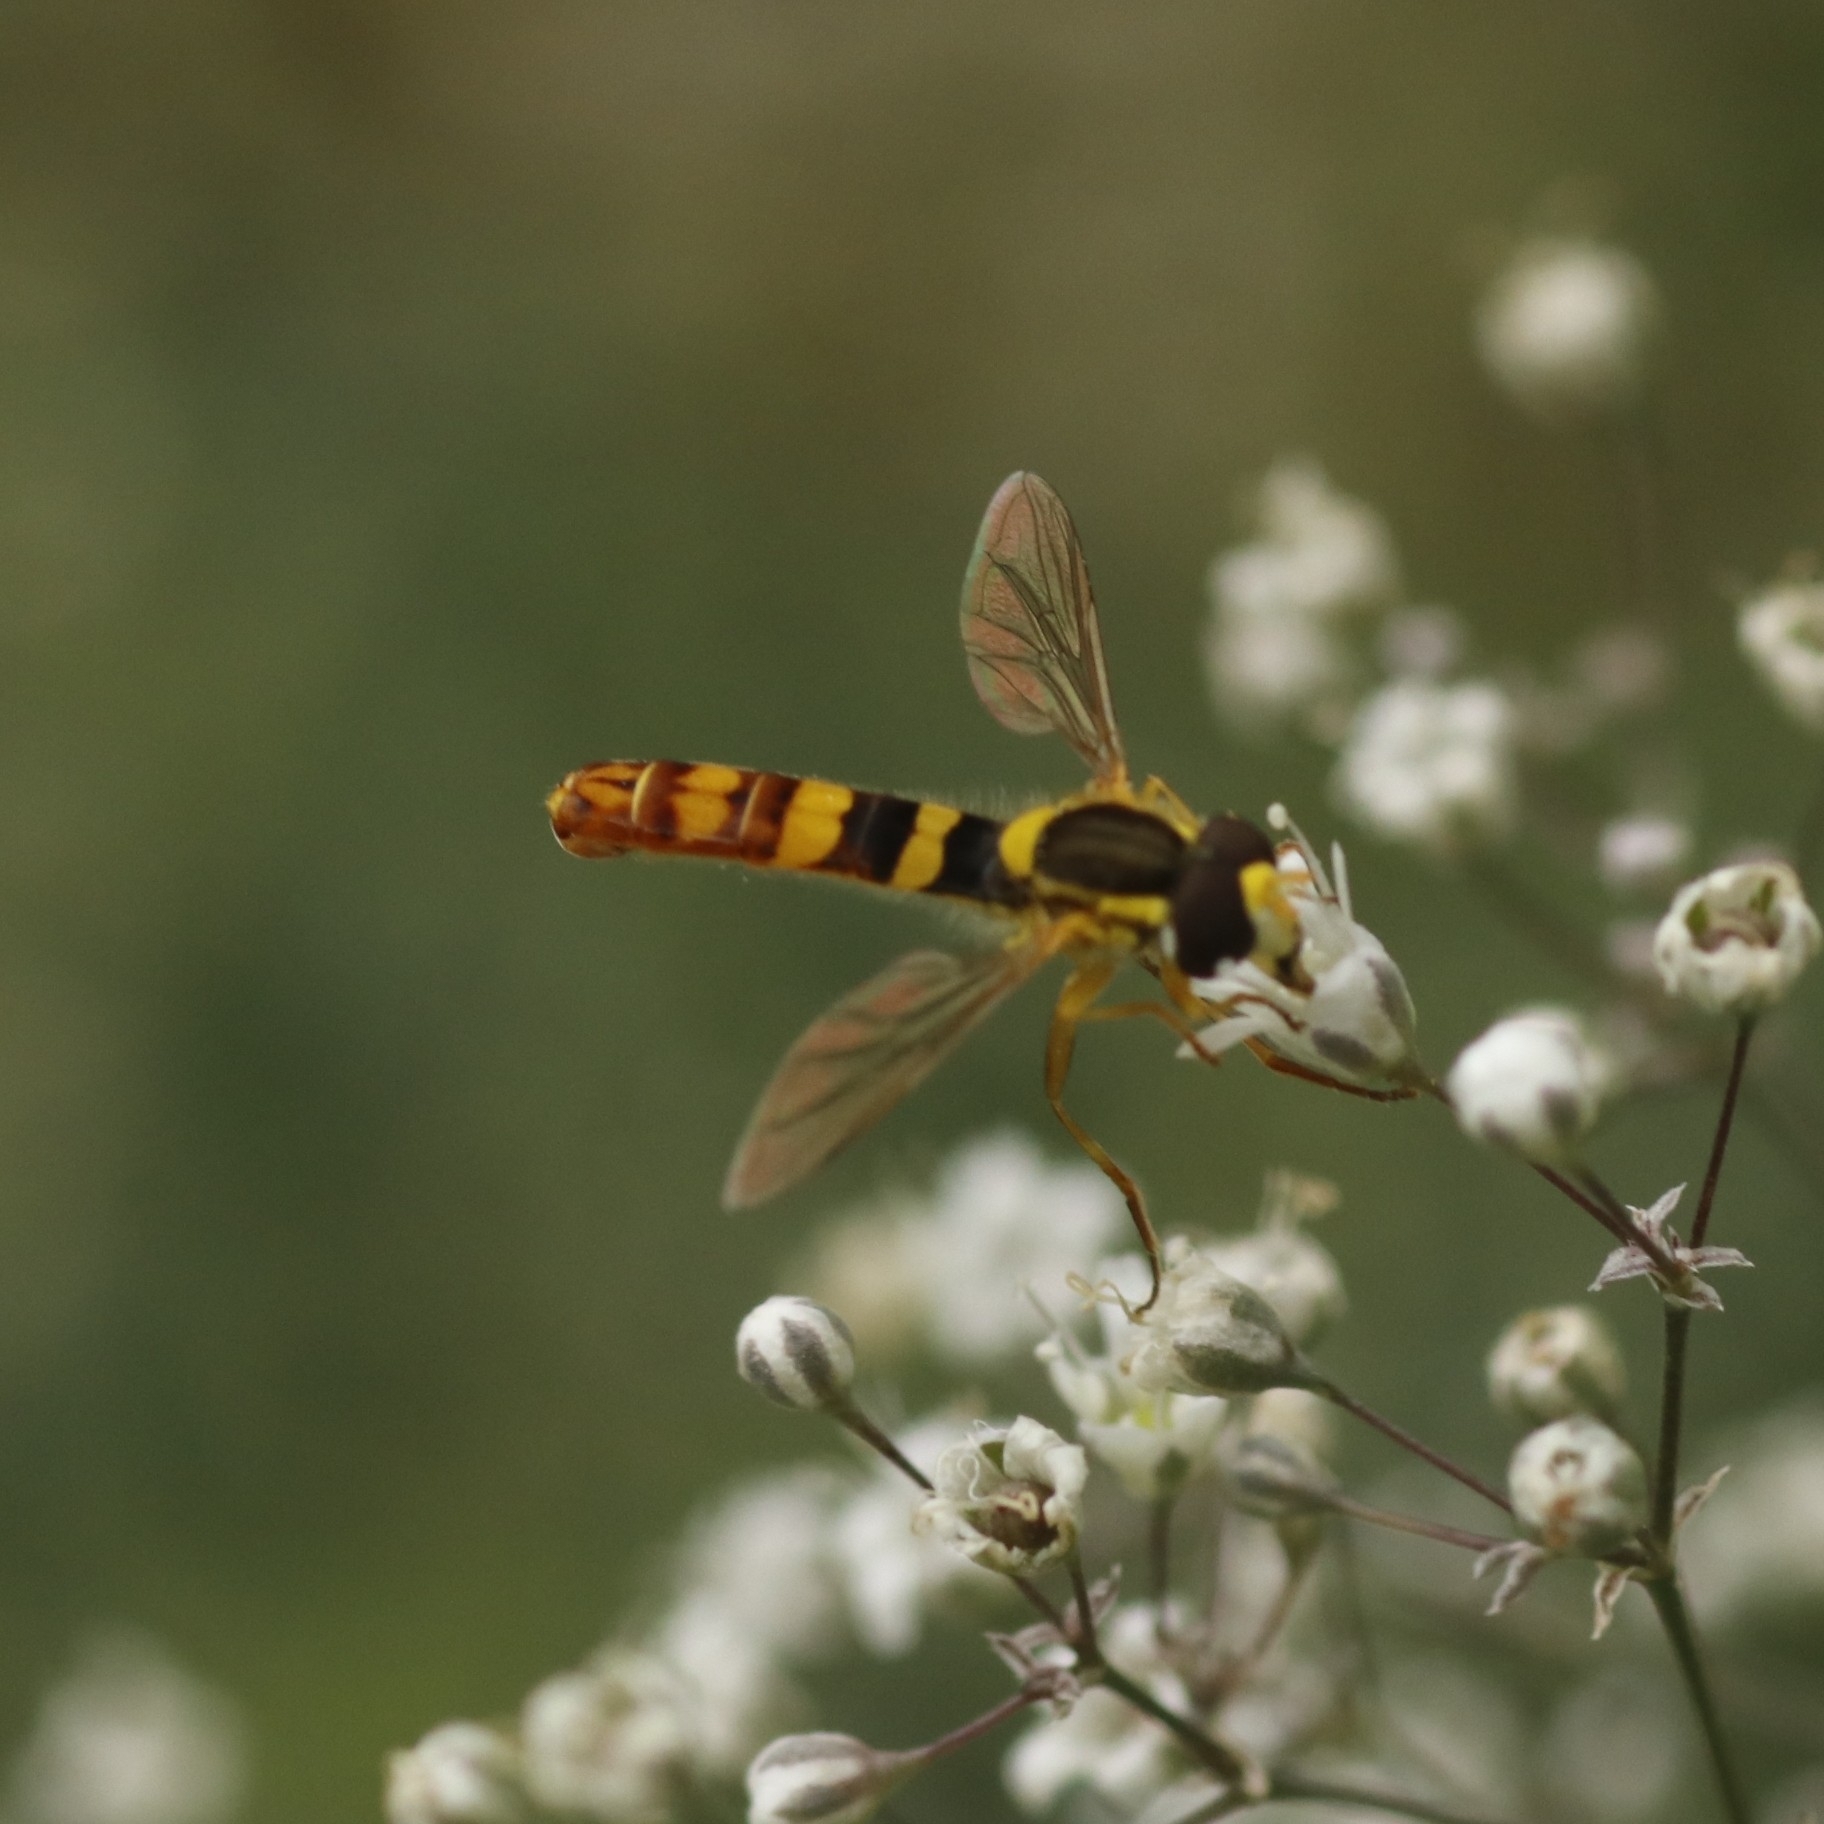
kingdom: Animalia
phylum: Arthropoda
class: Insecta
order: Diptera
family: Syrphidae
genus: Sphaerophoria
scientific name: Sphaerophoria scripta
